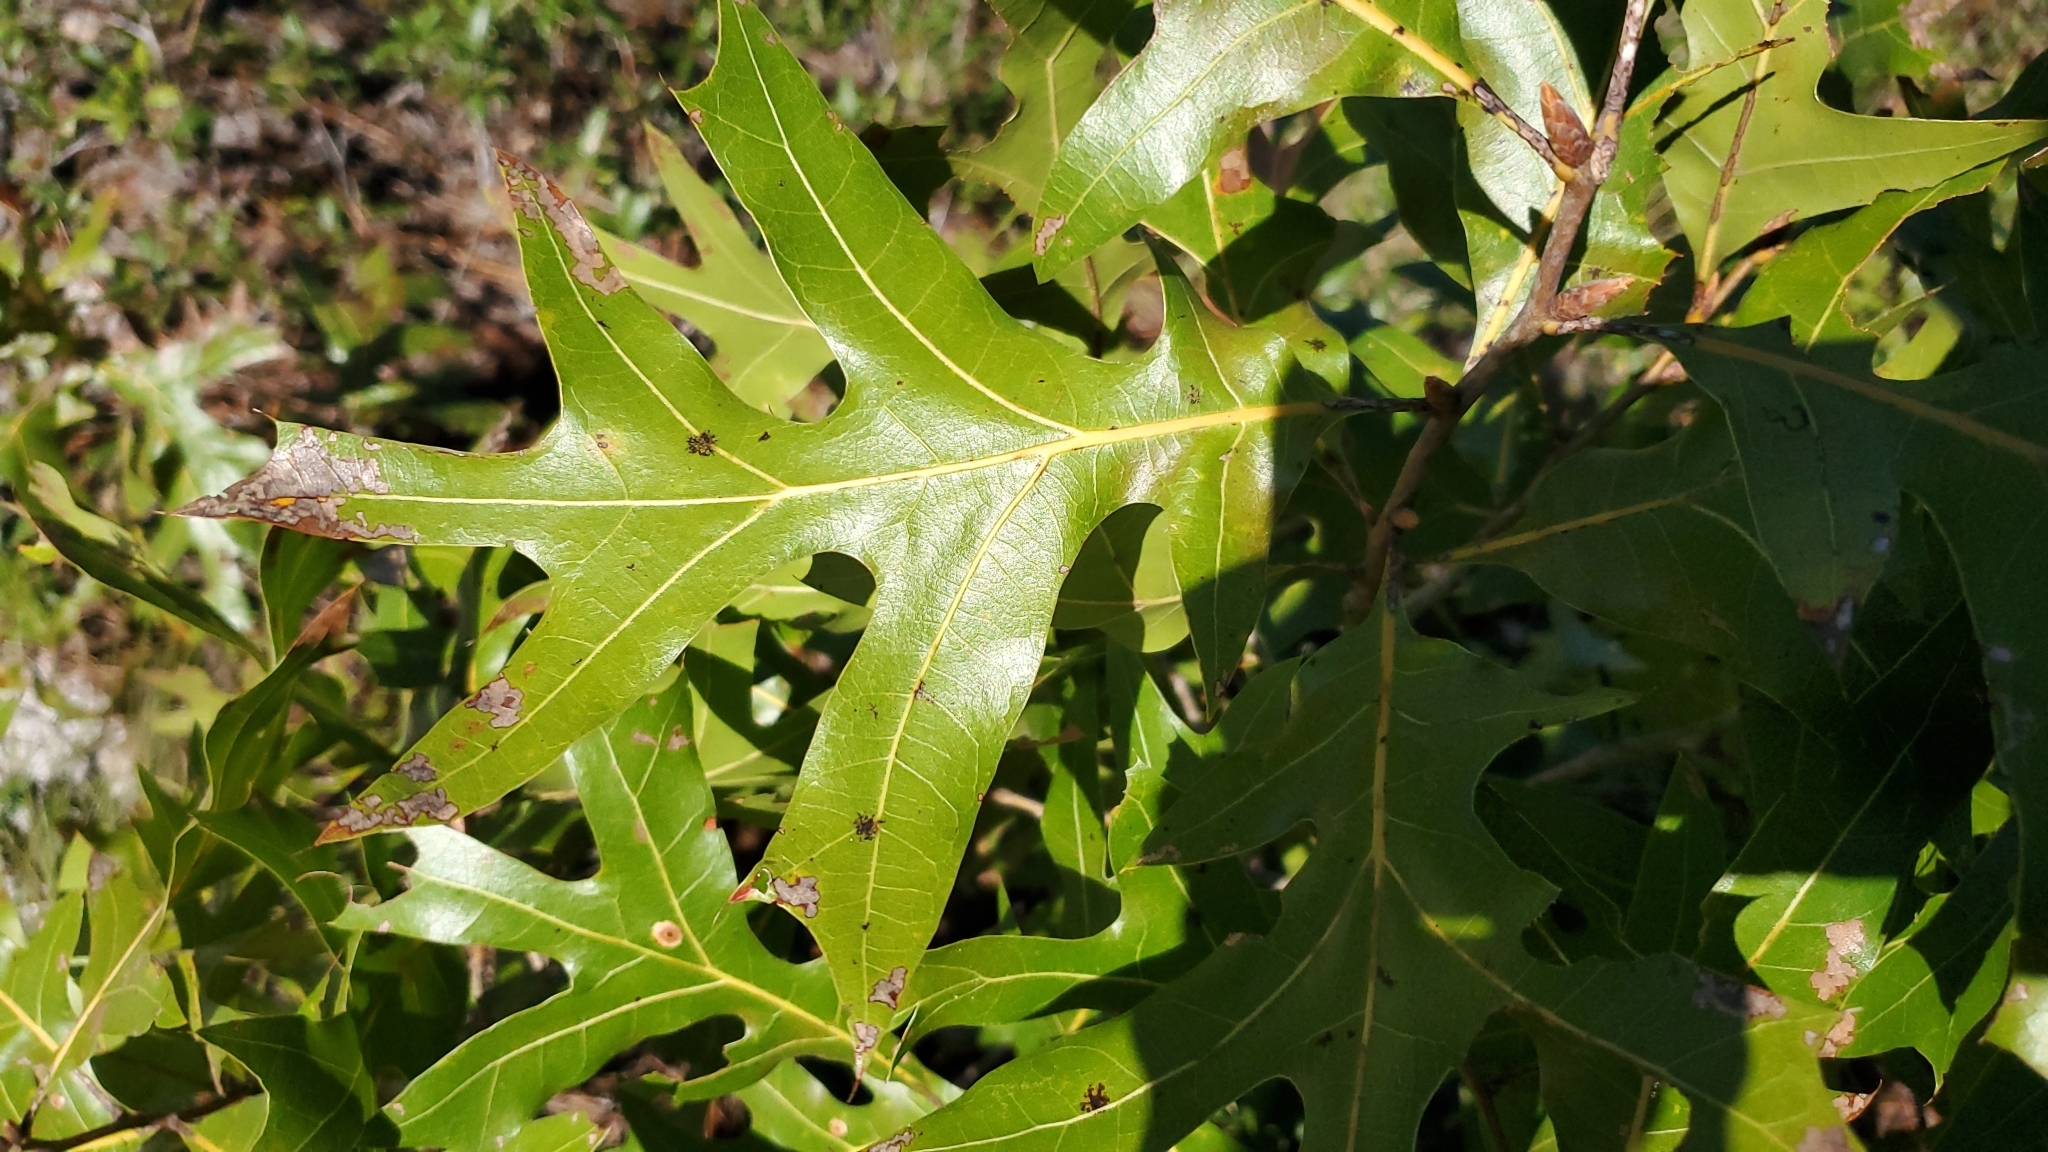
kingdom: Plantae
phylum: Tracheophyta
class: Magnoliopsida
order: Fagales
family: Fagaceae
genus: Quercus
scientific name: Quercus laevis
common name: Turkey oak
